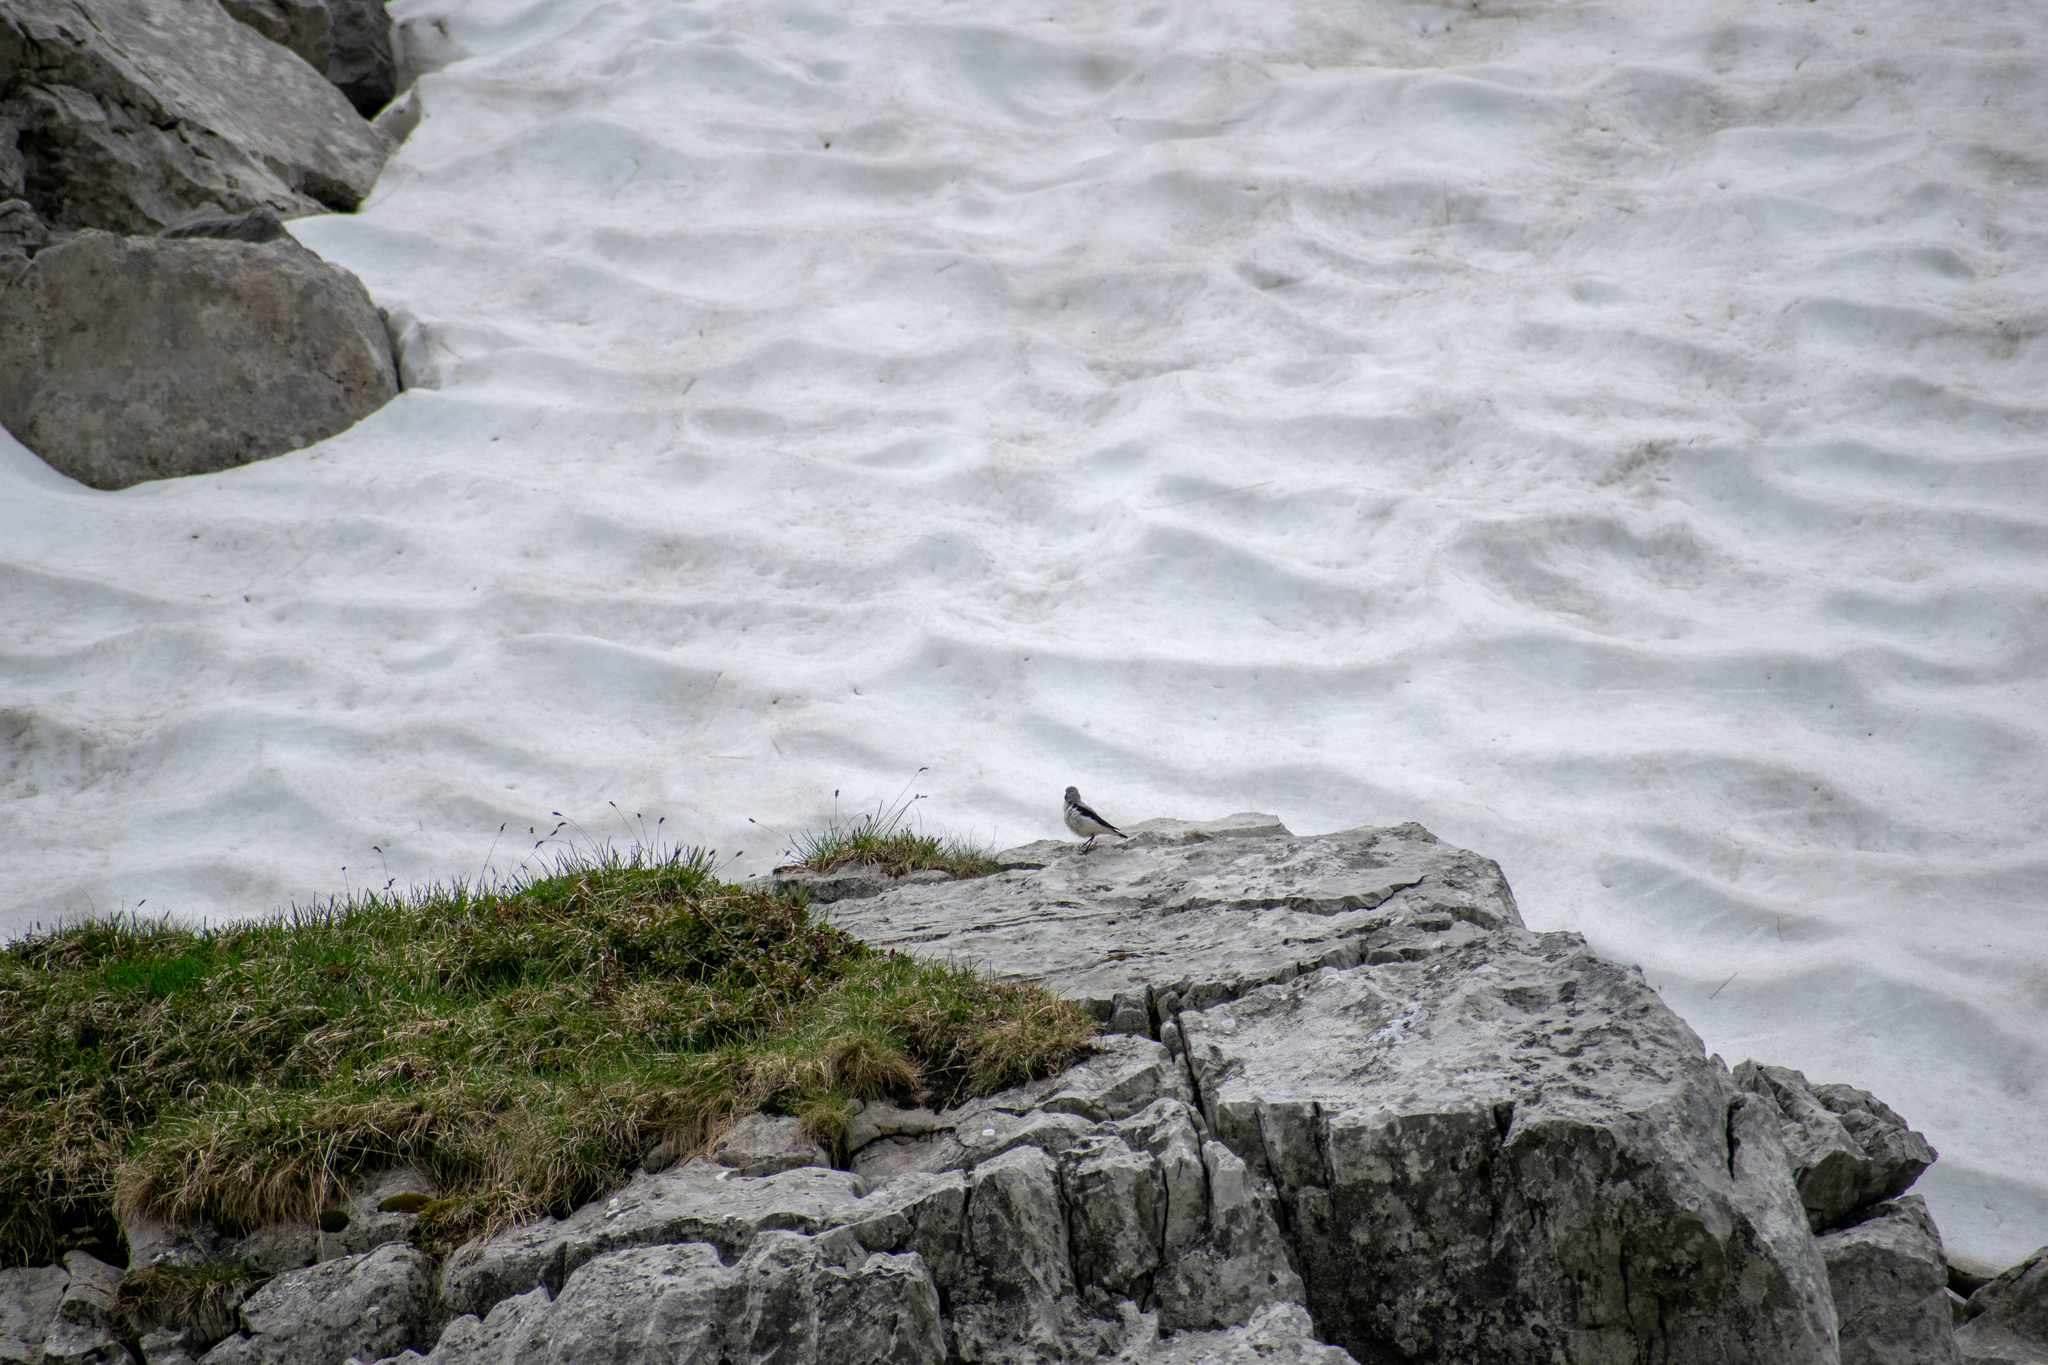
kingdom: Animalia
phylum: Chordata
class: Aves
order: Passeriformes
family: Muscicapidae
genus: Oenanthe
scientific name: Oenanthe oenanthe
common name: Northern wheatear
